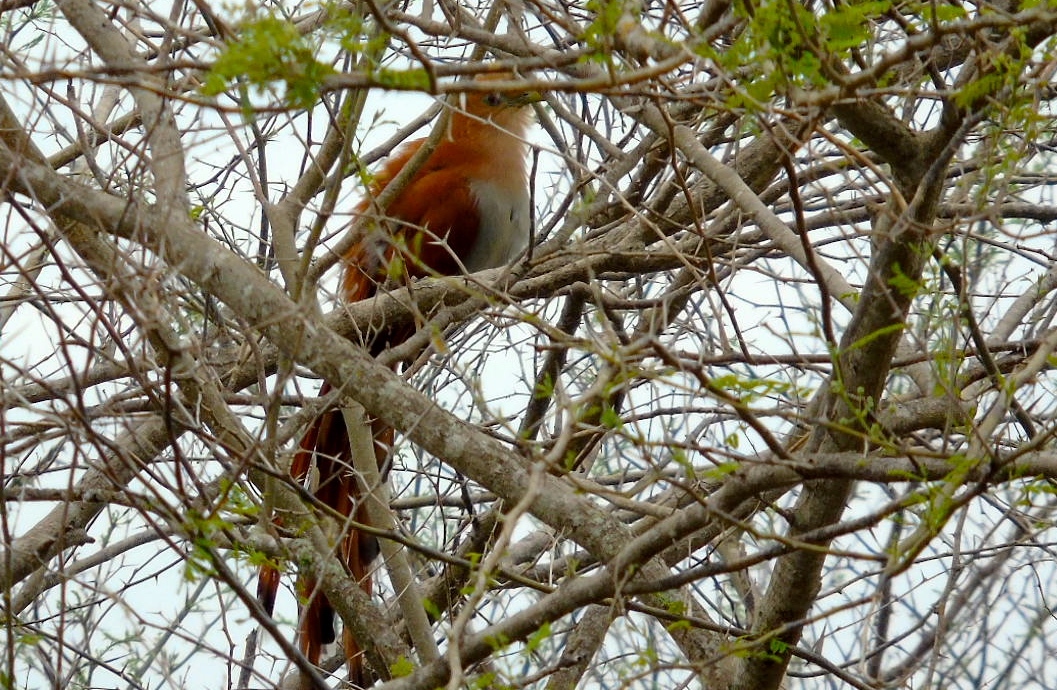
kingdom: Animalia
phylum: Chordata
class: Aves
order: Cuculiformes
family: Cuculidae
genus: Piaya
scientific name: Piaya cayana
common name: Squirrel cuckoo
